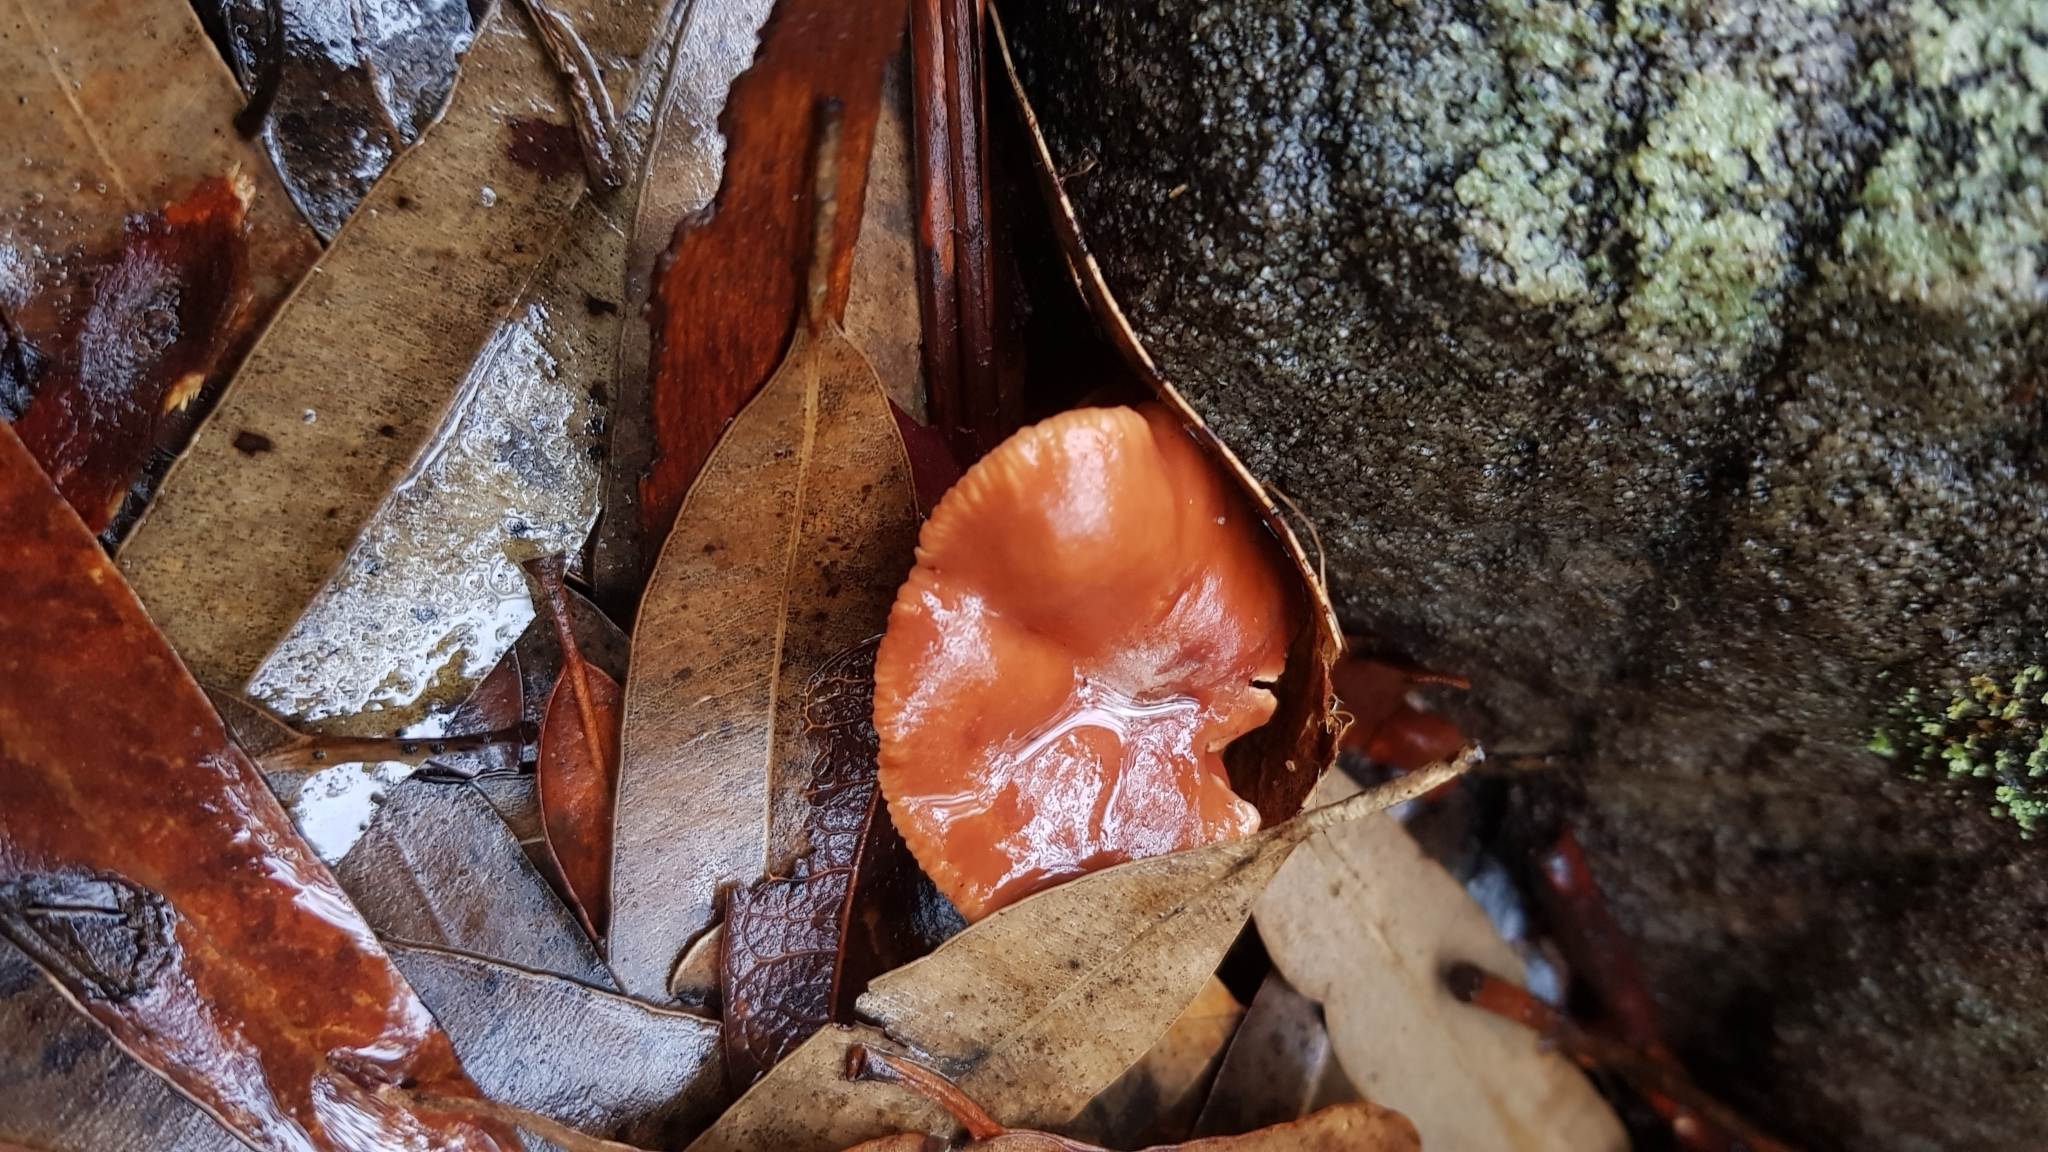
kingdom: Fungi
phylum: Basidiomycota
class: Agaricomycetes
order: Russulales
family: Russulaceae
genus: Lactarius
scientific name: Lactarius eucalypti
